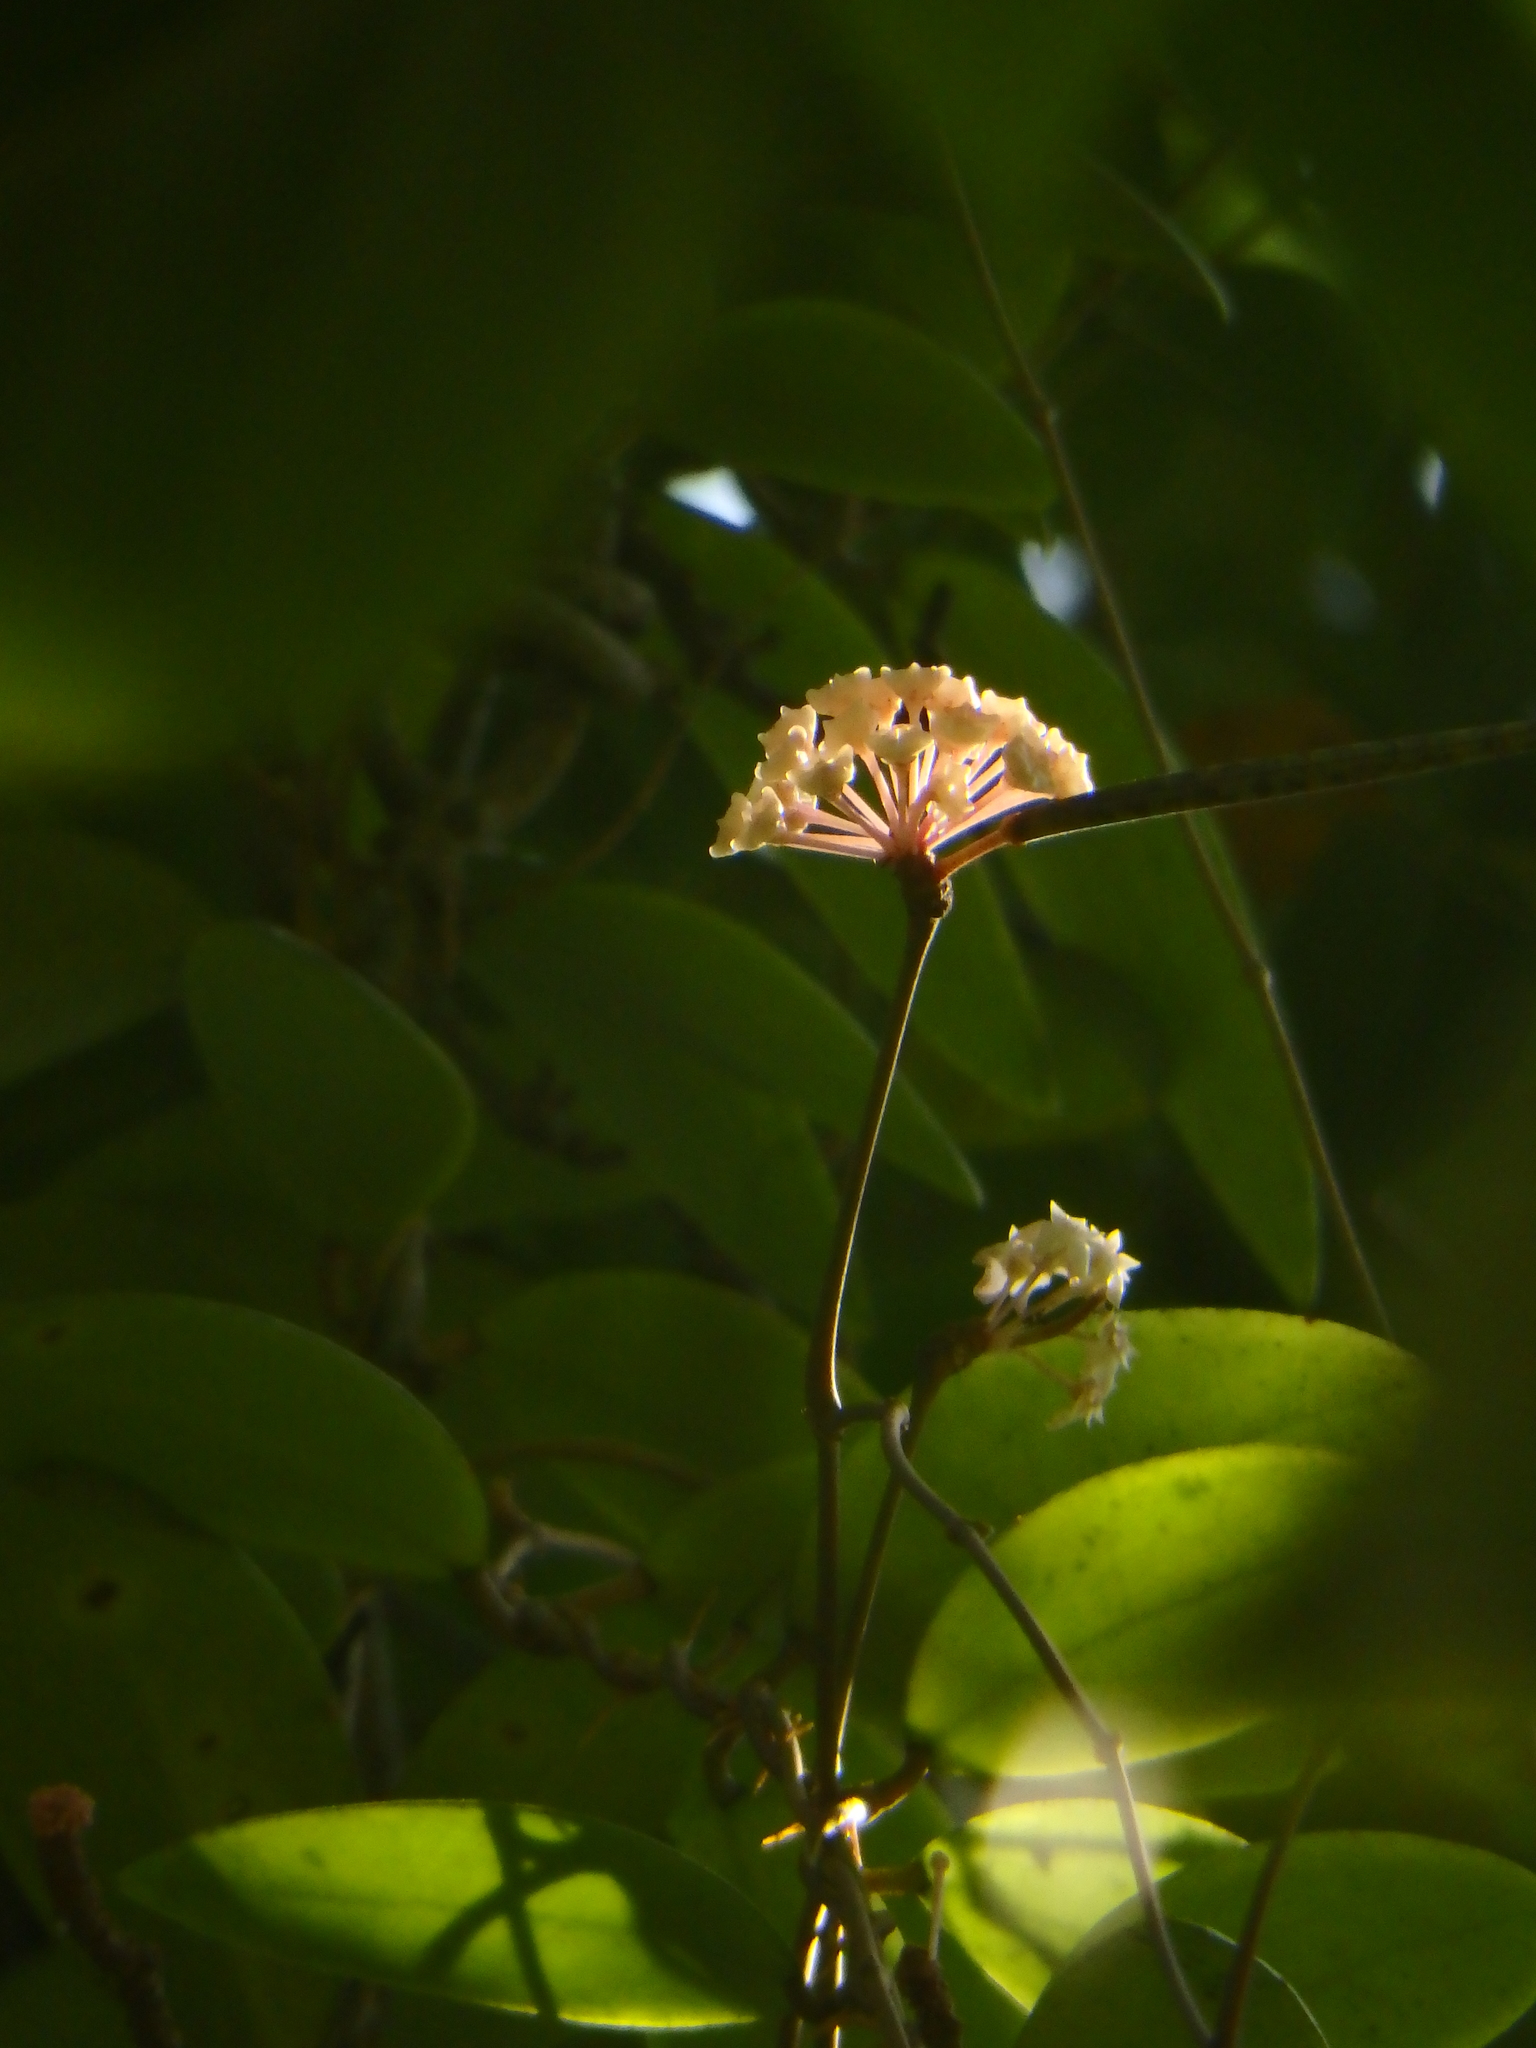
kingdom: Plantae
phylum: Tracheophyta
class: Magnoliopsida
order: Gentianales
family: Apocynaceae
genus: Hoya
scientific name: Hoya verticillata
